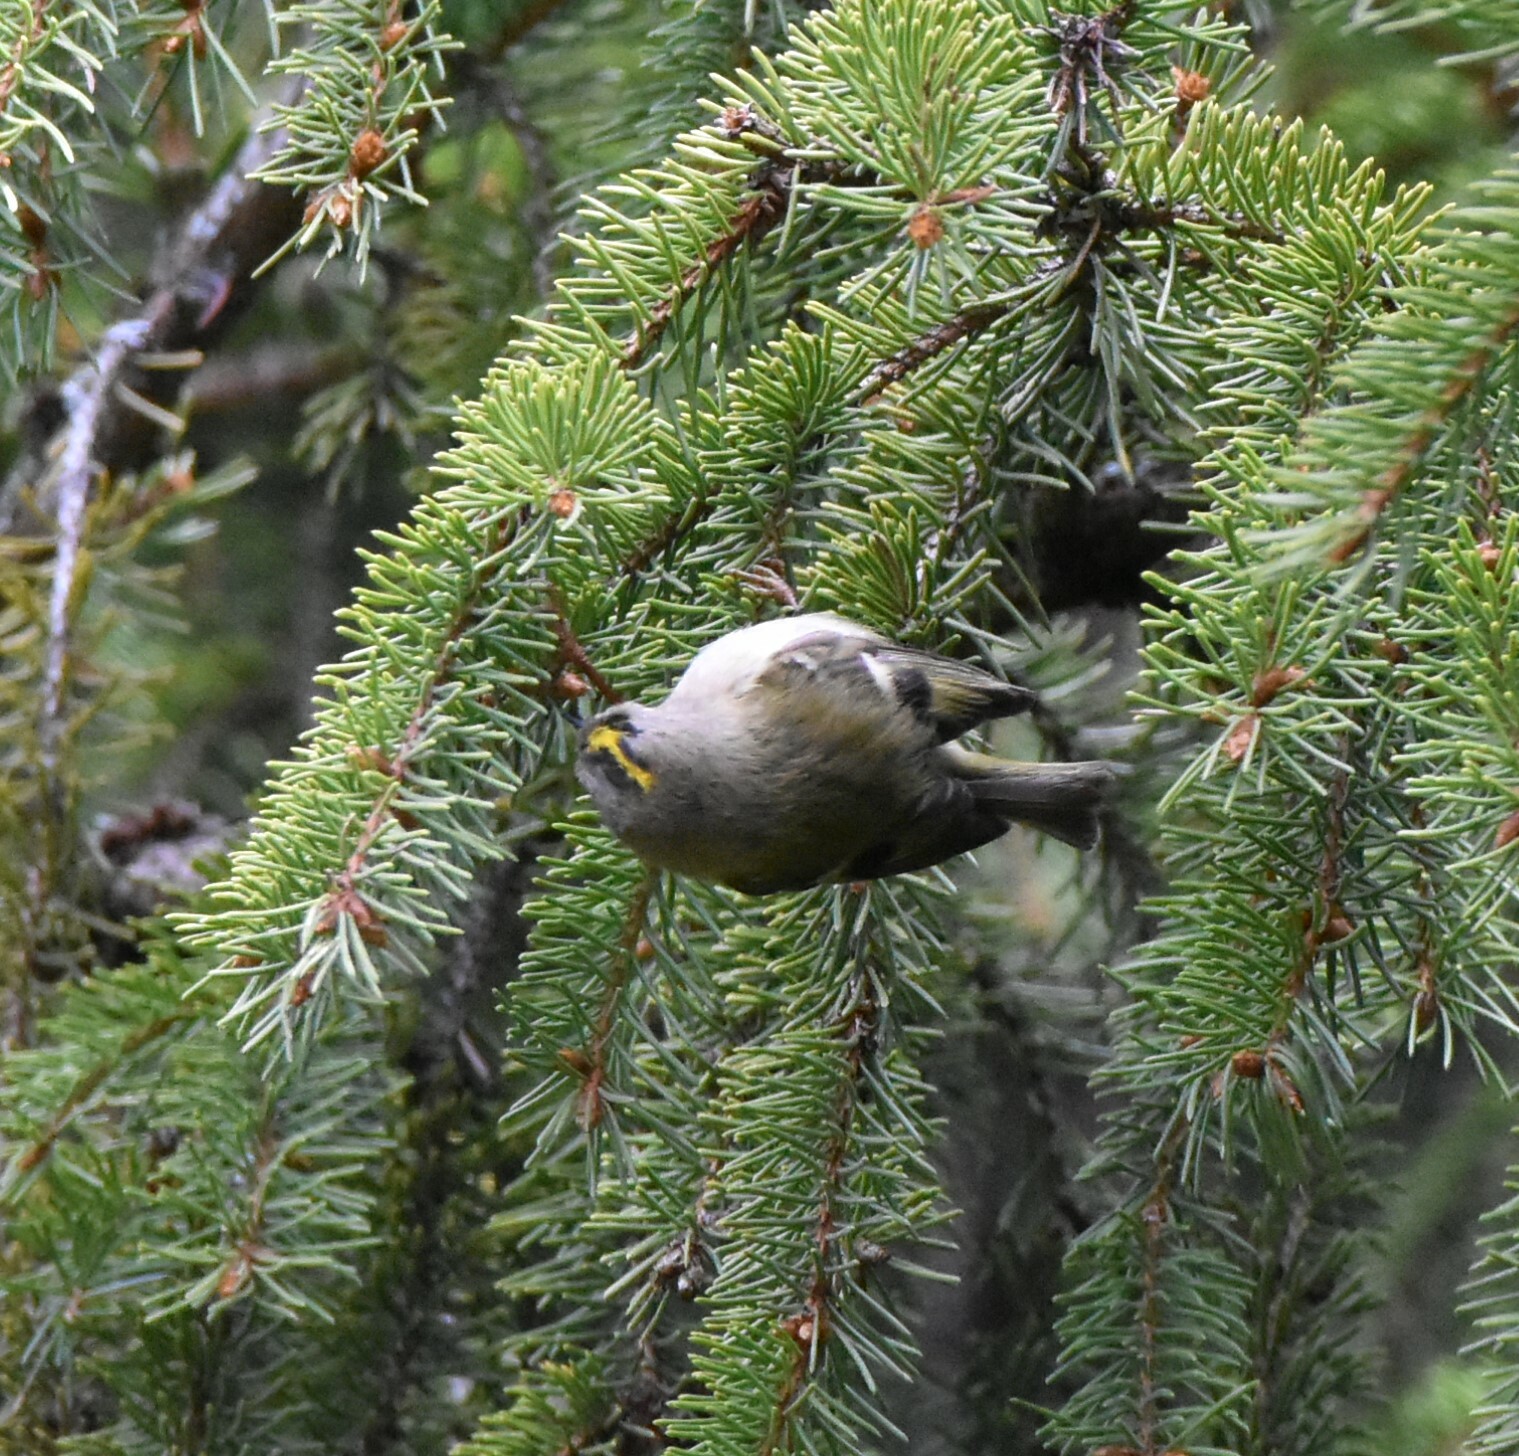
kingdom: Animalia
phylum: Chordata
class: Aves
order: Passeriformes
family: Regulidae
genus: Regulus
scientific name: Regulus regulus
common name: Goldcrest
